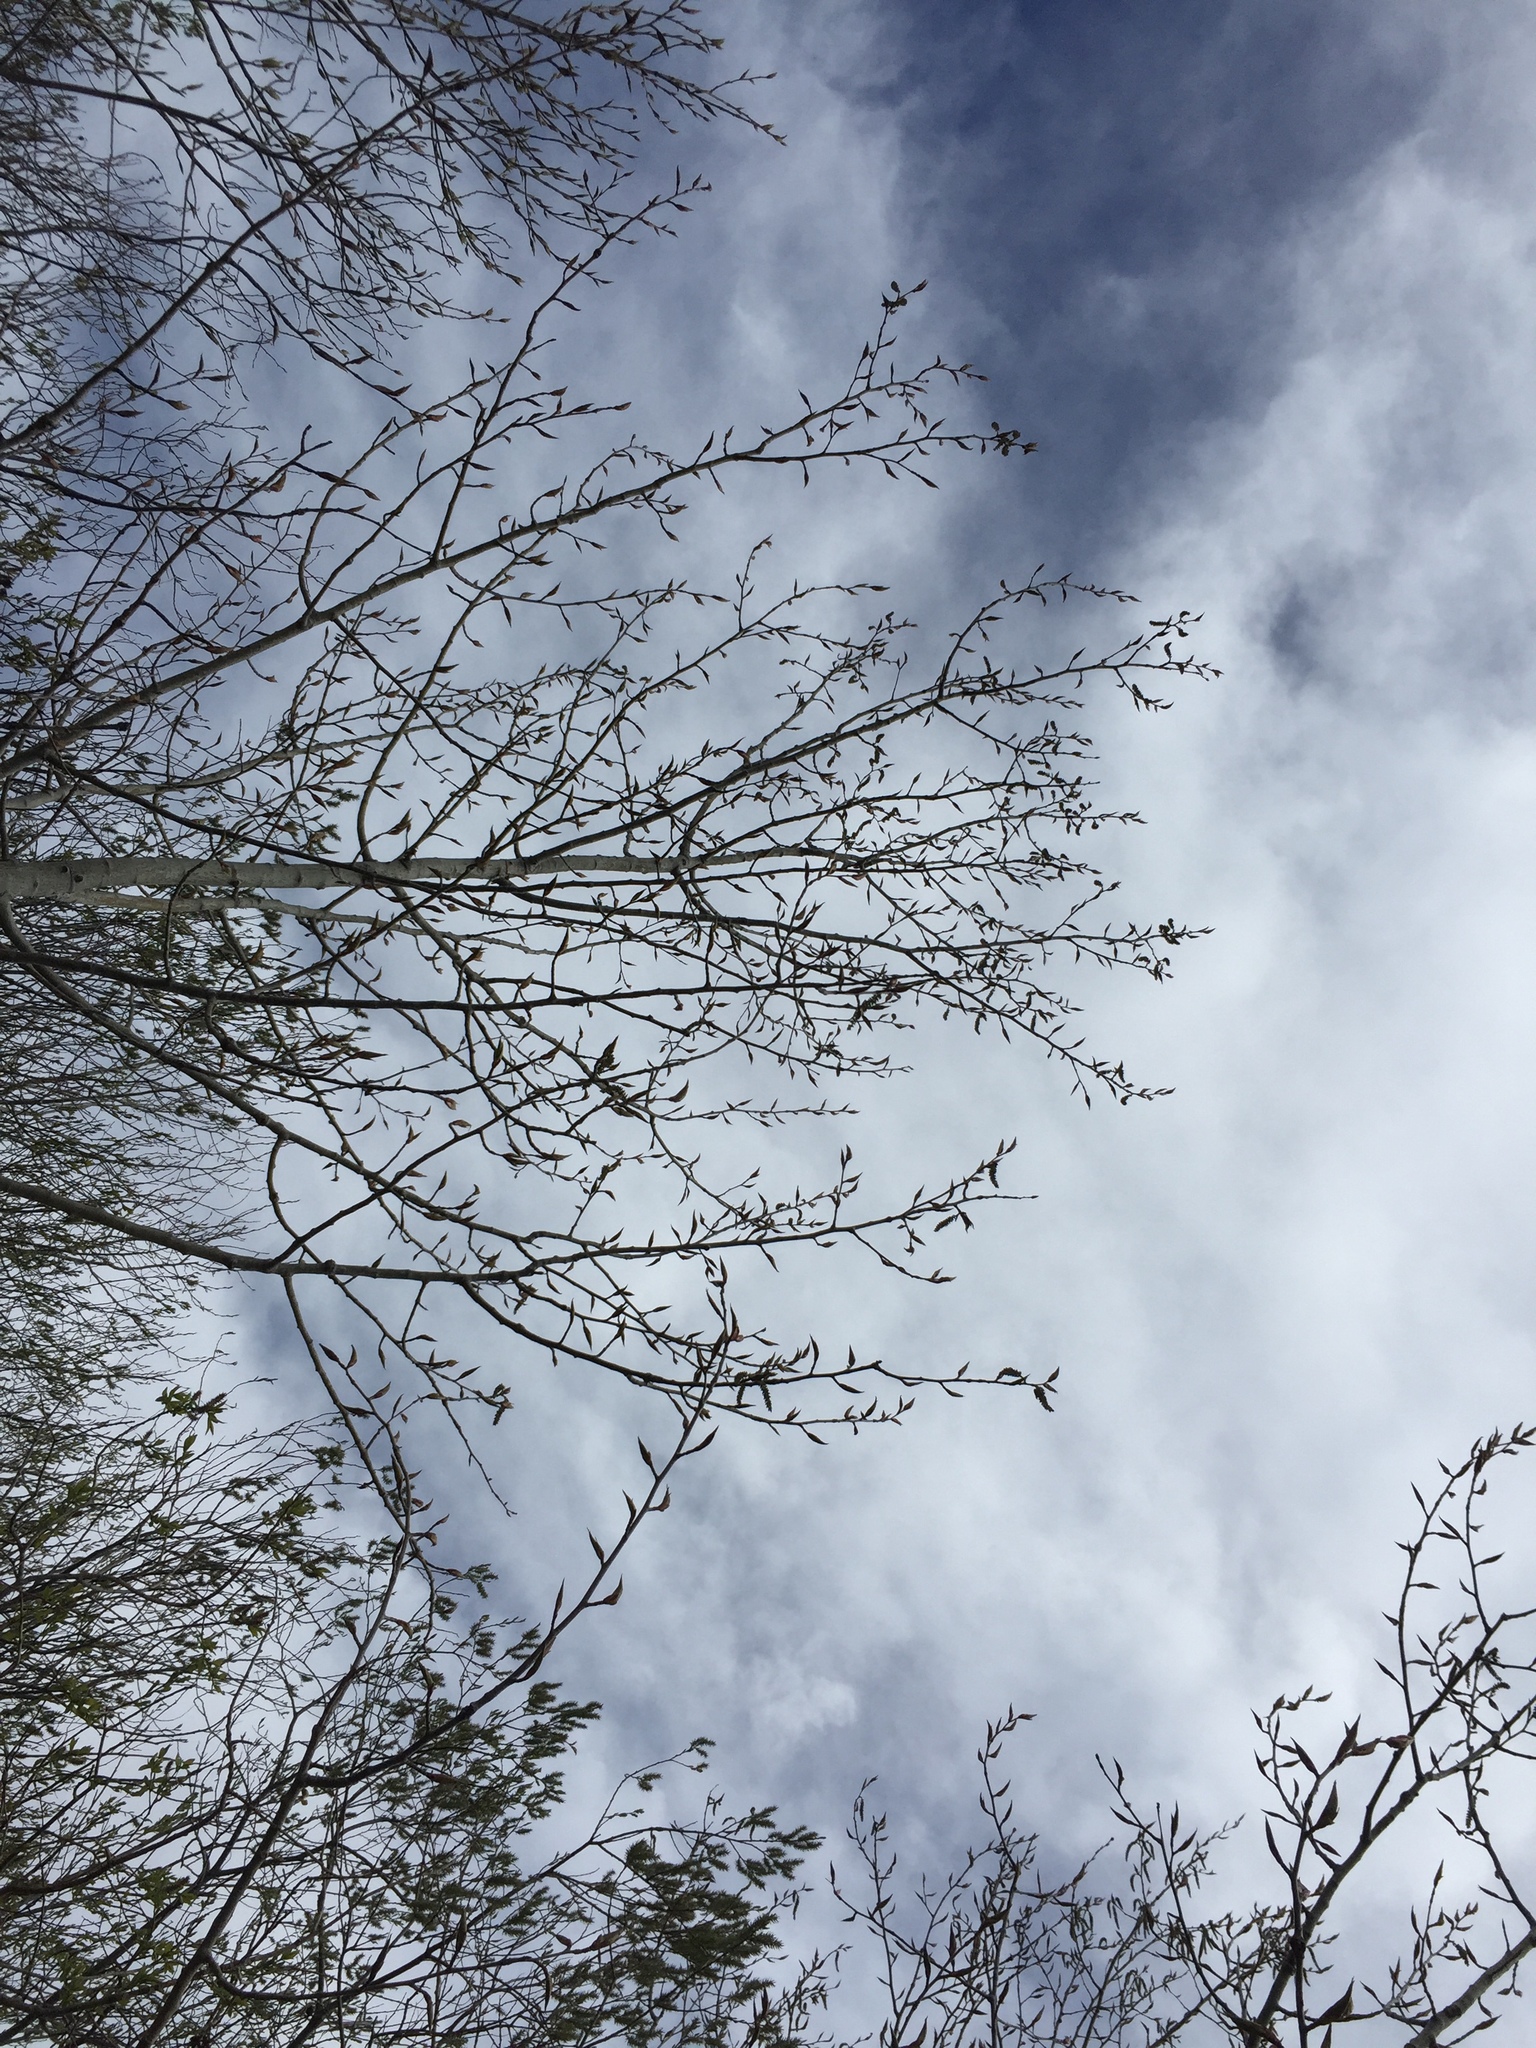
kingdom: Plantae
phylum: Tracheophyta
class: Magnoliopsida
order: Malpighiales
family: Salicaceae
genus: Populus
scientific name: Populus balsamifera
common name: Balsam poplar
